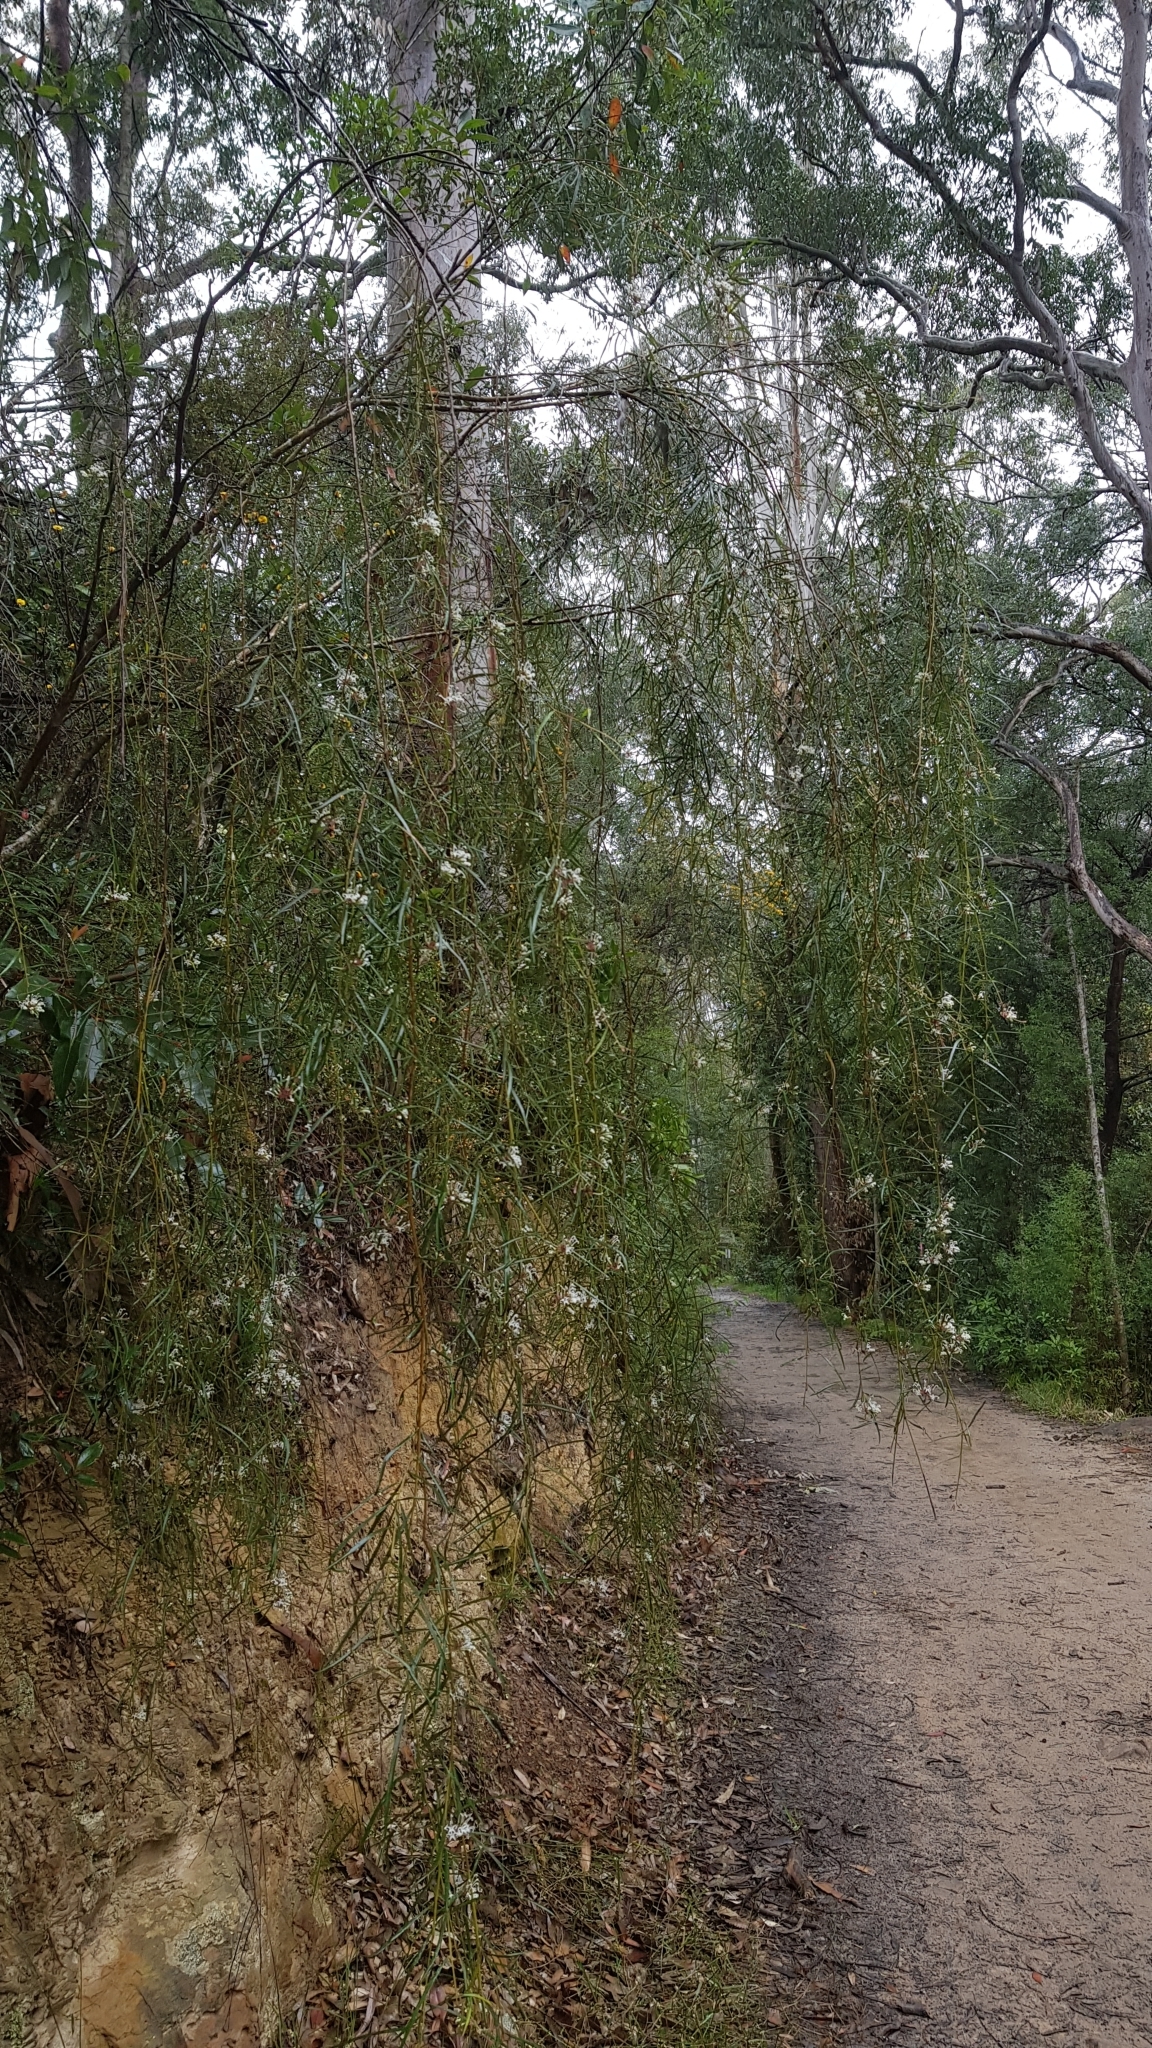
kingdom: Plantae
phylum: Tracheophyta
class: Magnoliopsida
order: Proteales
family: Proteaceae
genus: Grevillea
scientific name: Grevillea linearifolia
